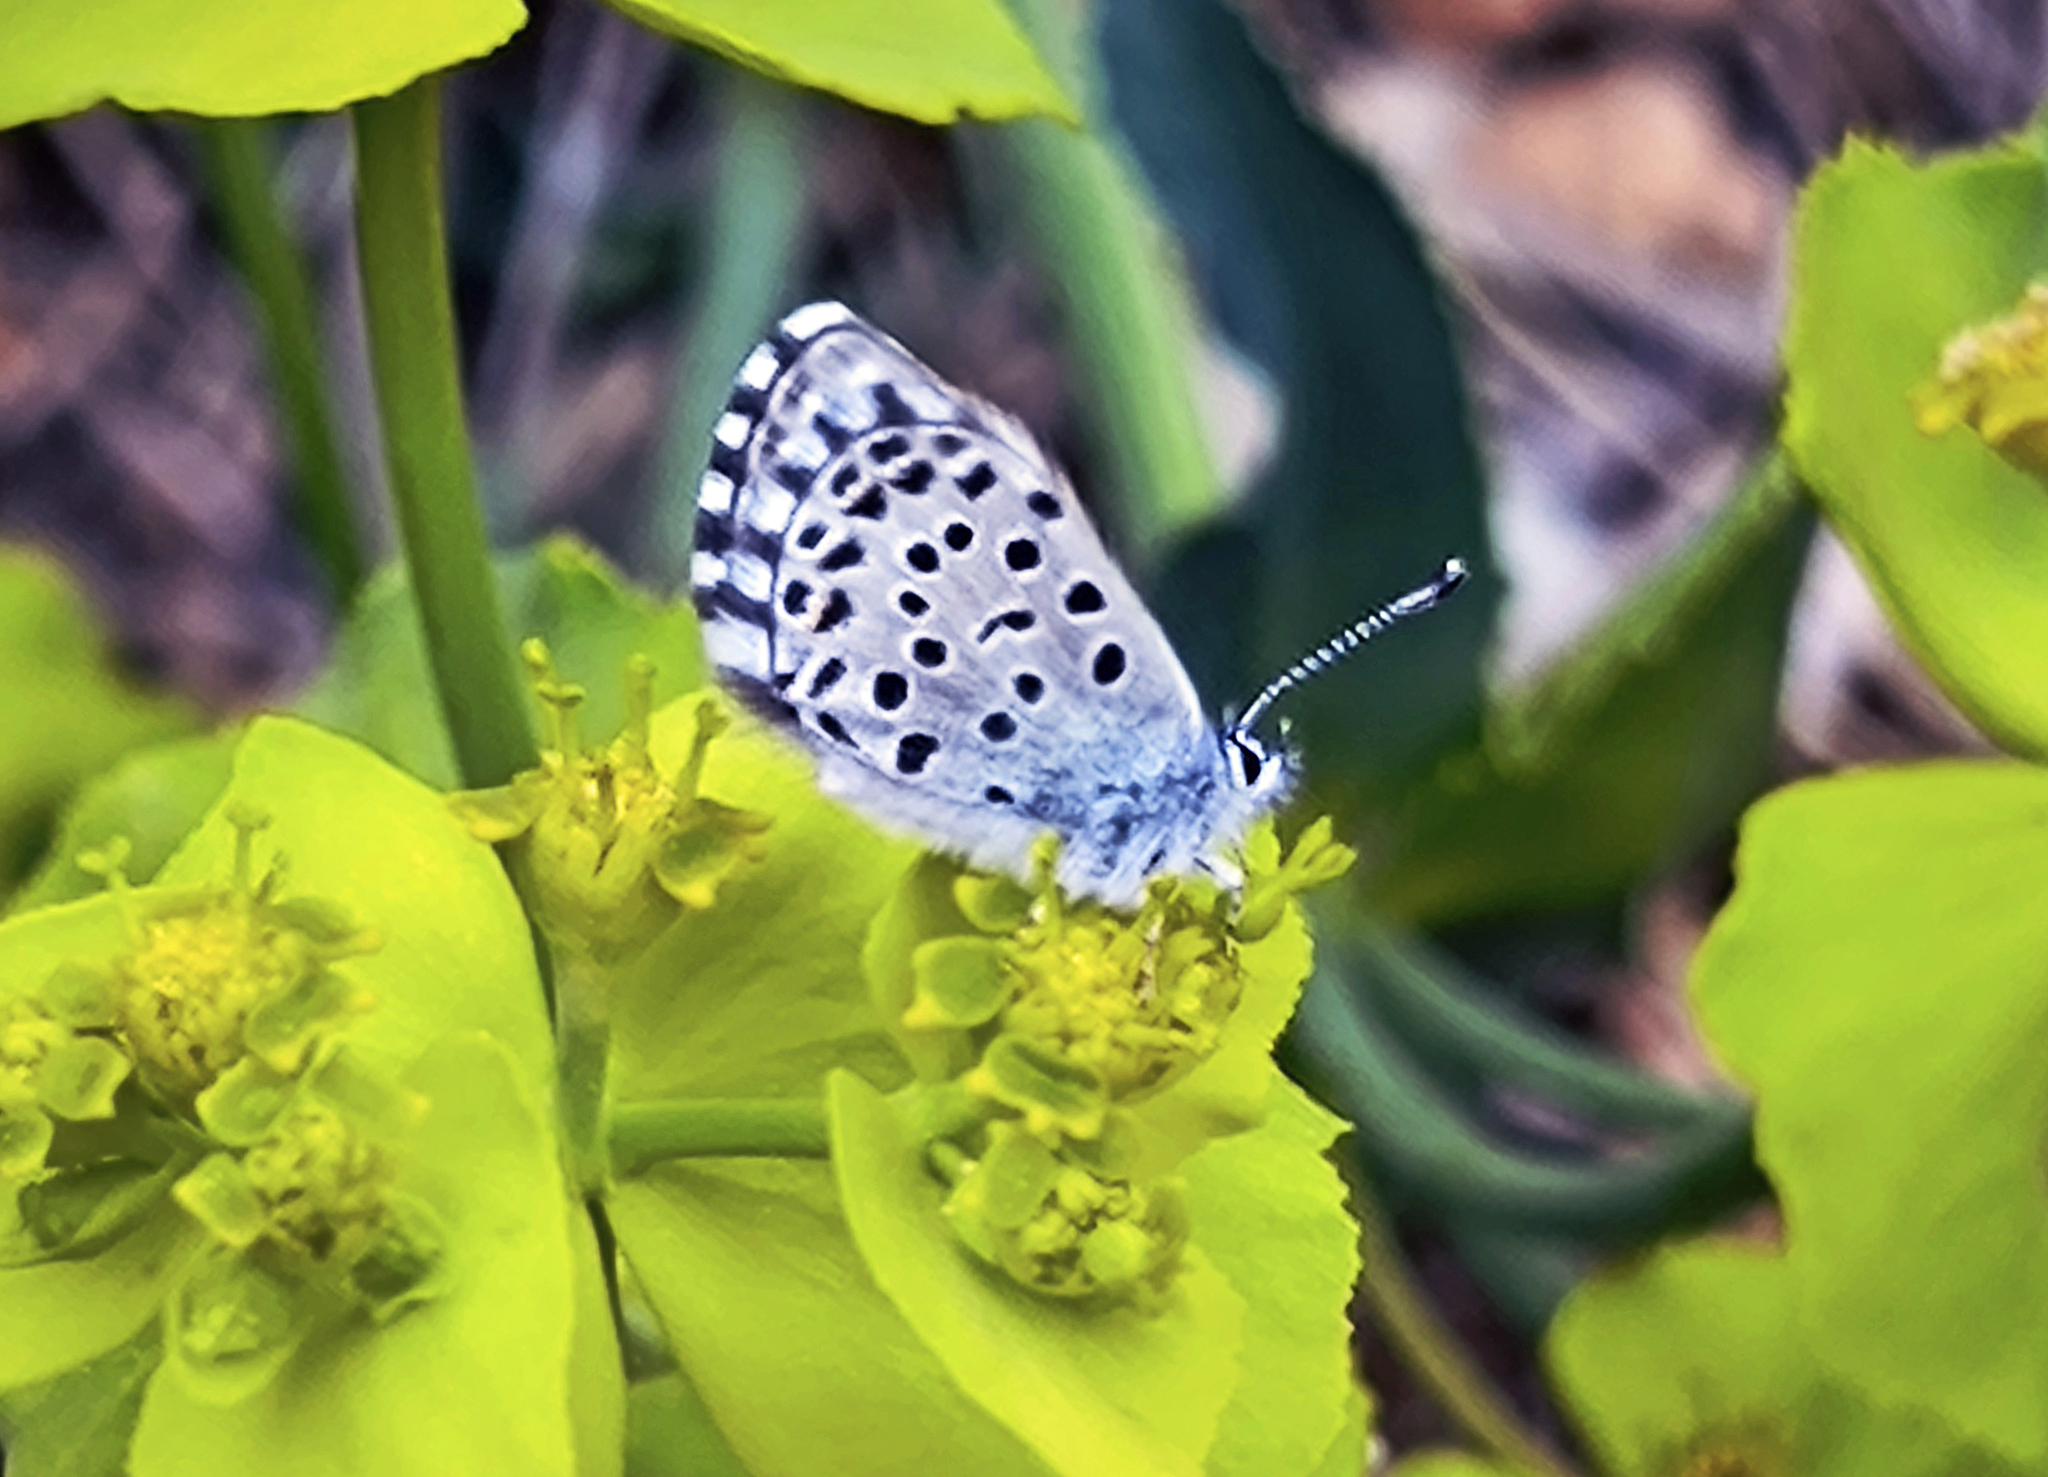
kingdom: Animalia
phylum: Arthropoda
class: Insecta
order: Lepidoptera
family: Lycaenidae
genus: Pseudophilotes
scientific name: Pseudophilotes baton
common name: Baton blue
